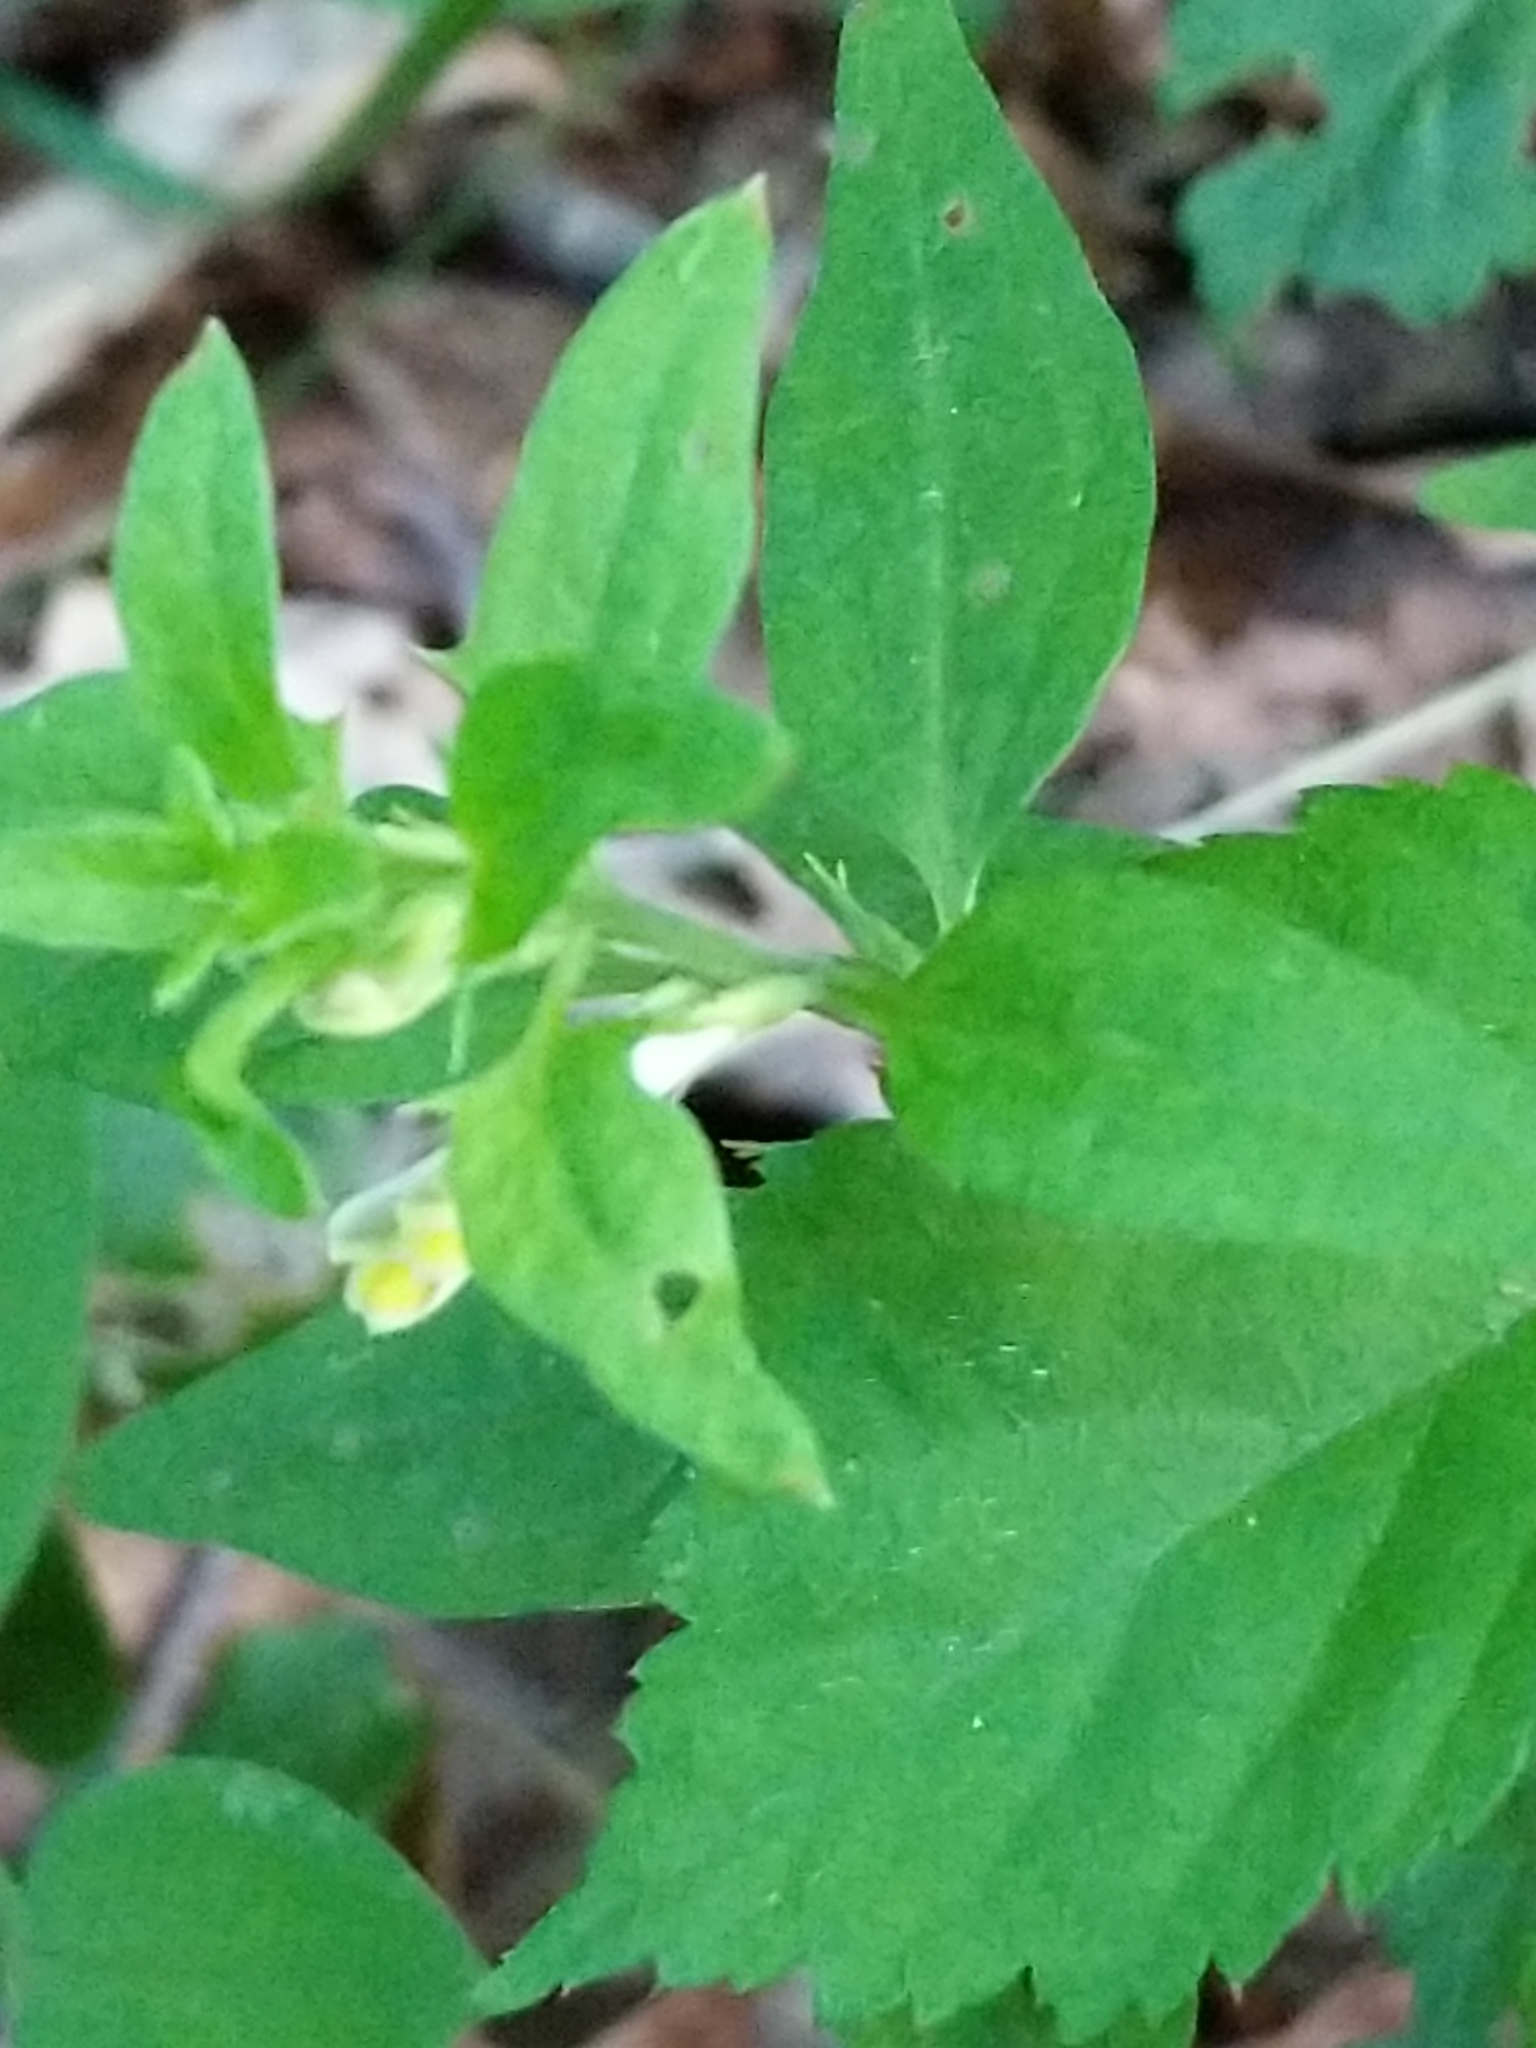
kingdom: Plantae
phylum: Tracheophyta
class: Magnoliopsida
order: Lamiales
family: Orobanchaceae
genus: Melampyrum
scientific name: Melampyrum lineare
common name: American cow-wheat
